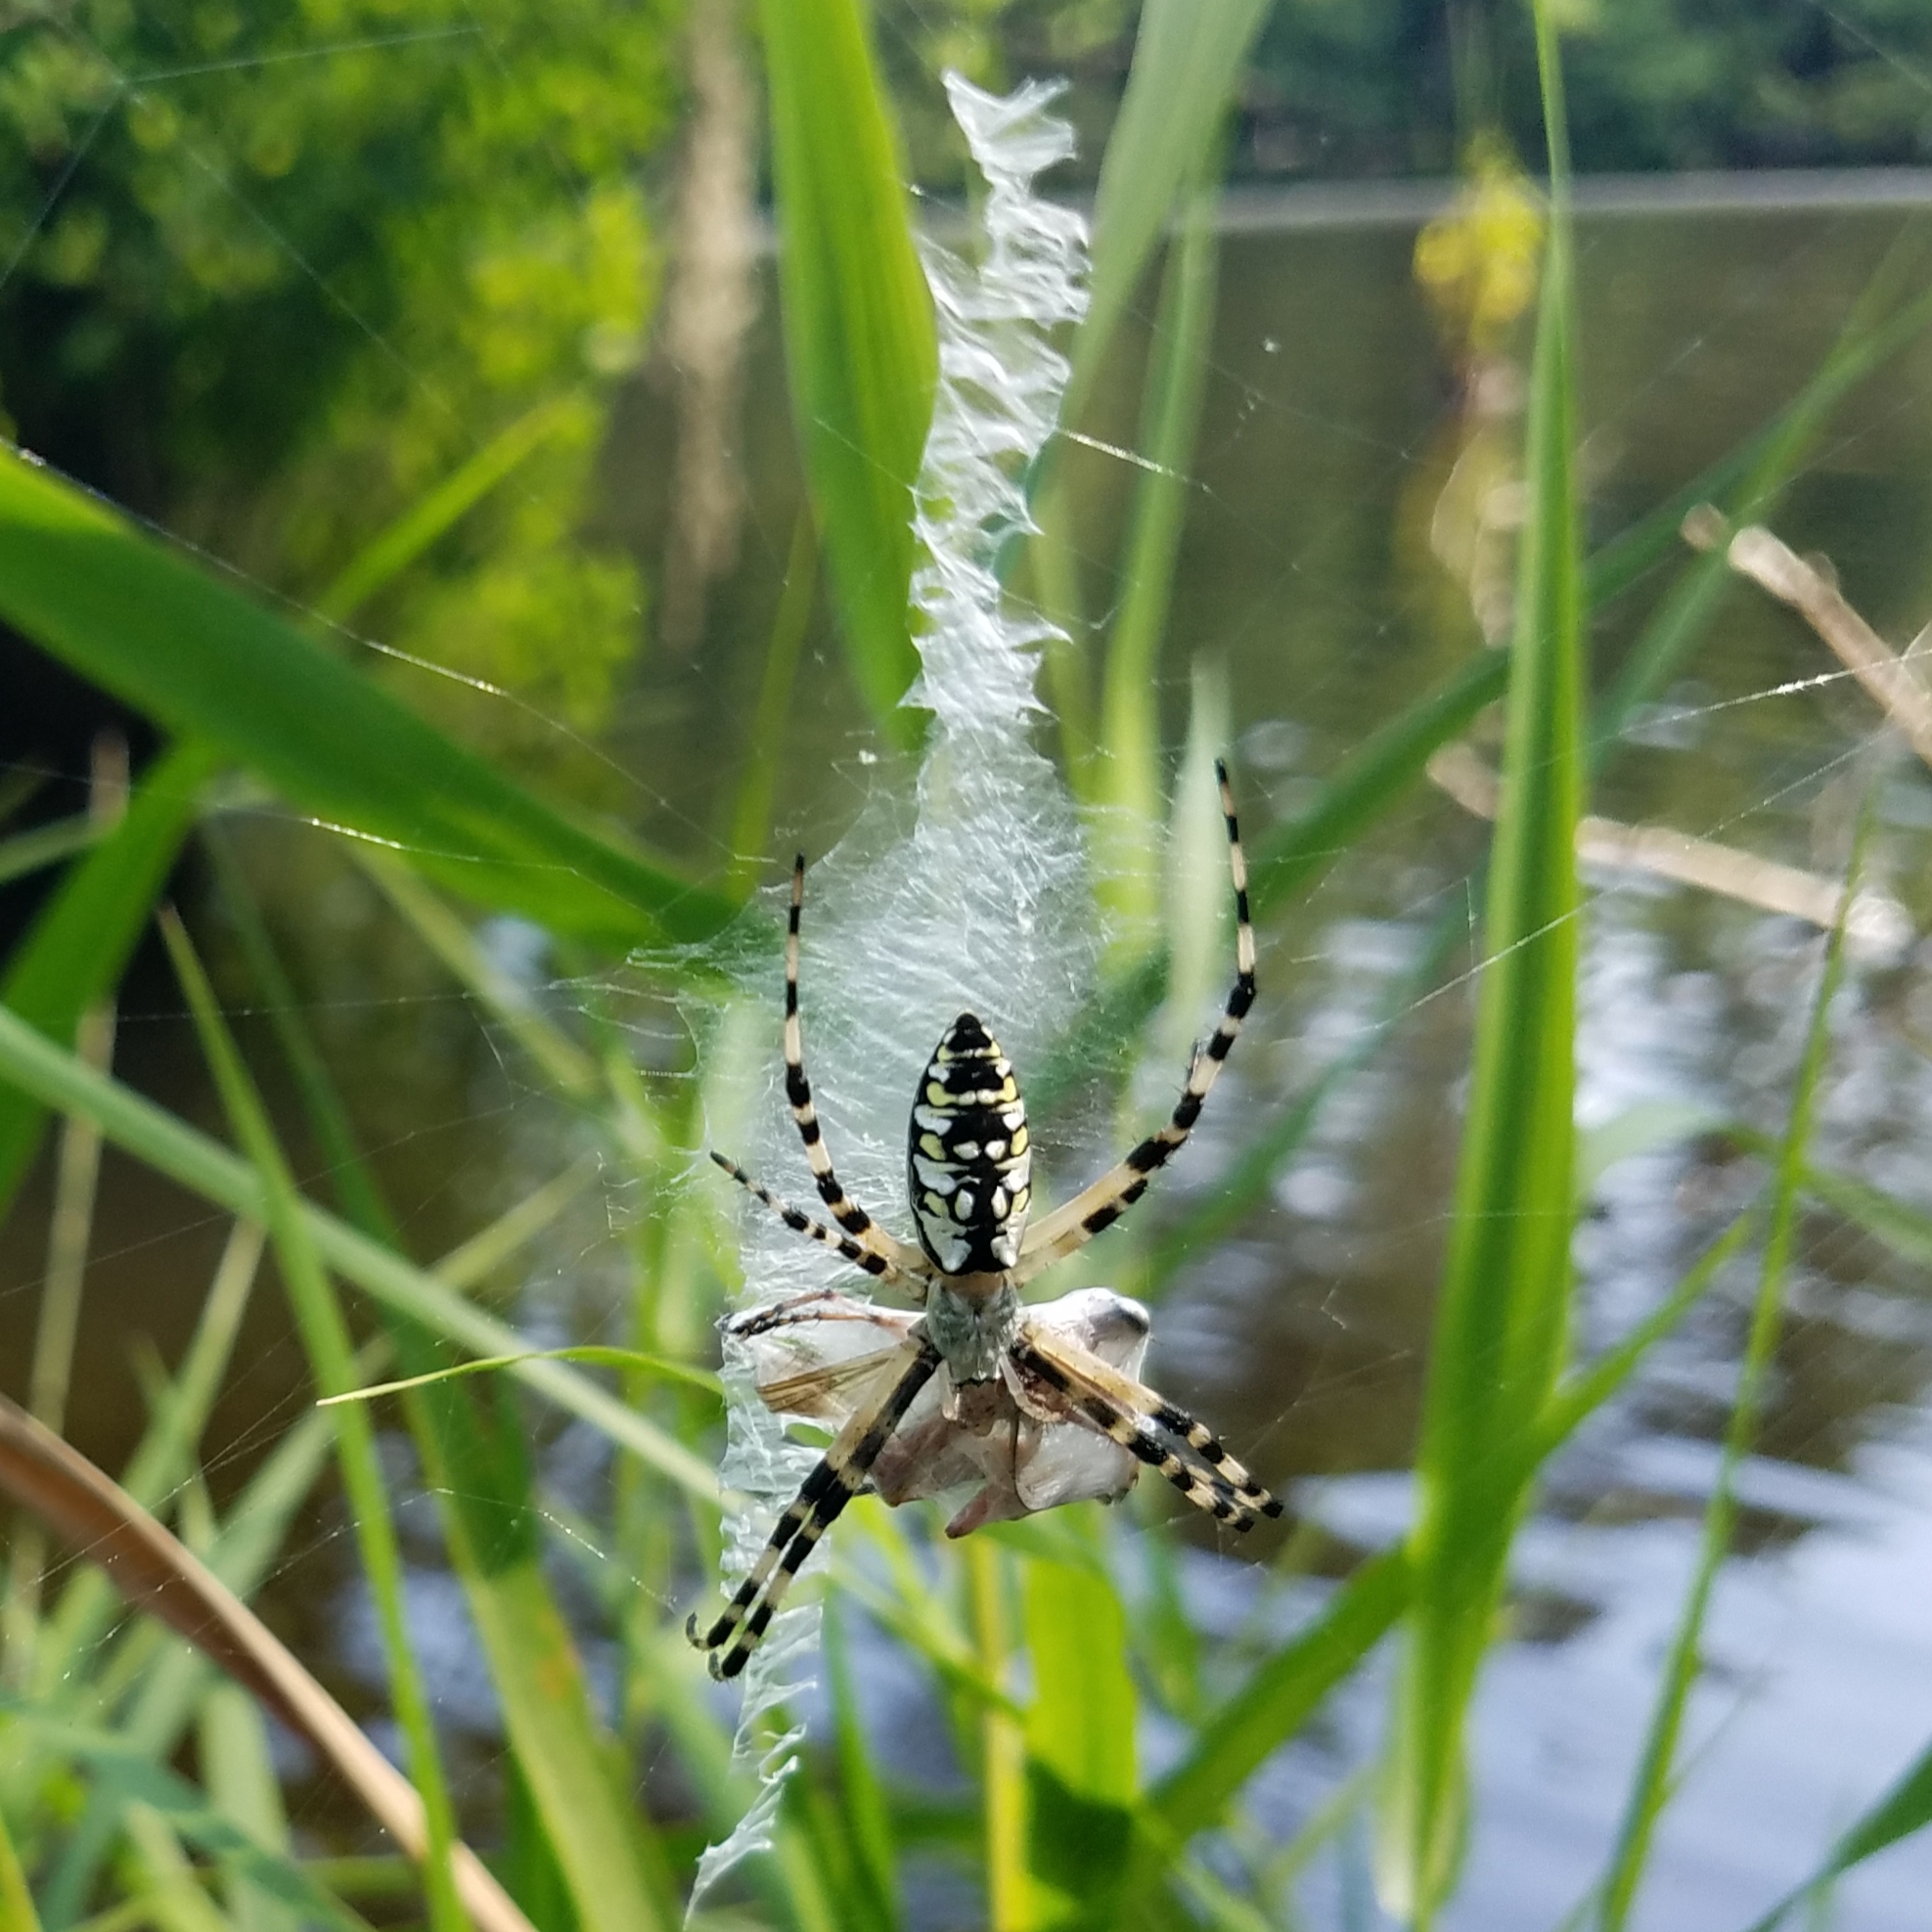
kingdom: Animalia
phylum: Arthropoda
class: Arachnida
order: Araneae
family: Araneidae
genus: Argiope
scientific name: Argiope aurantia
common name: Orb weavers
